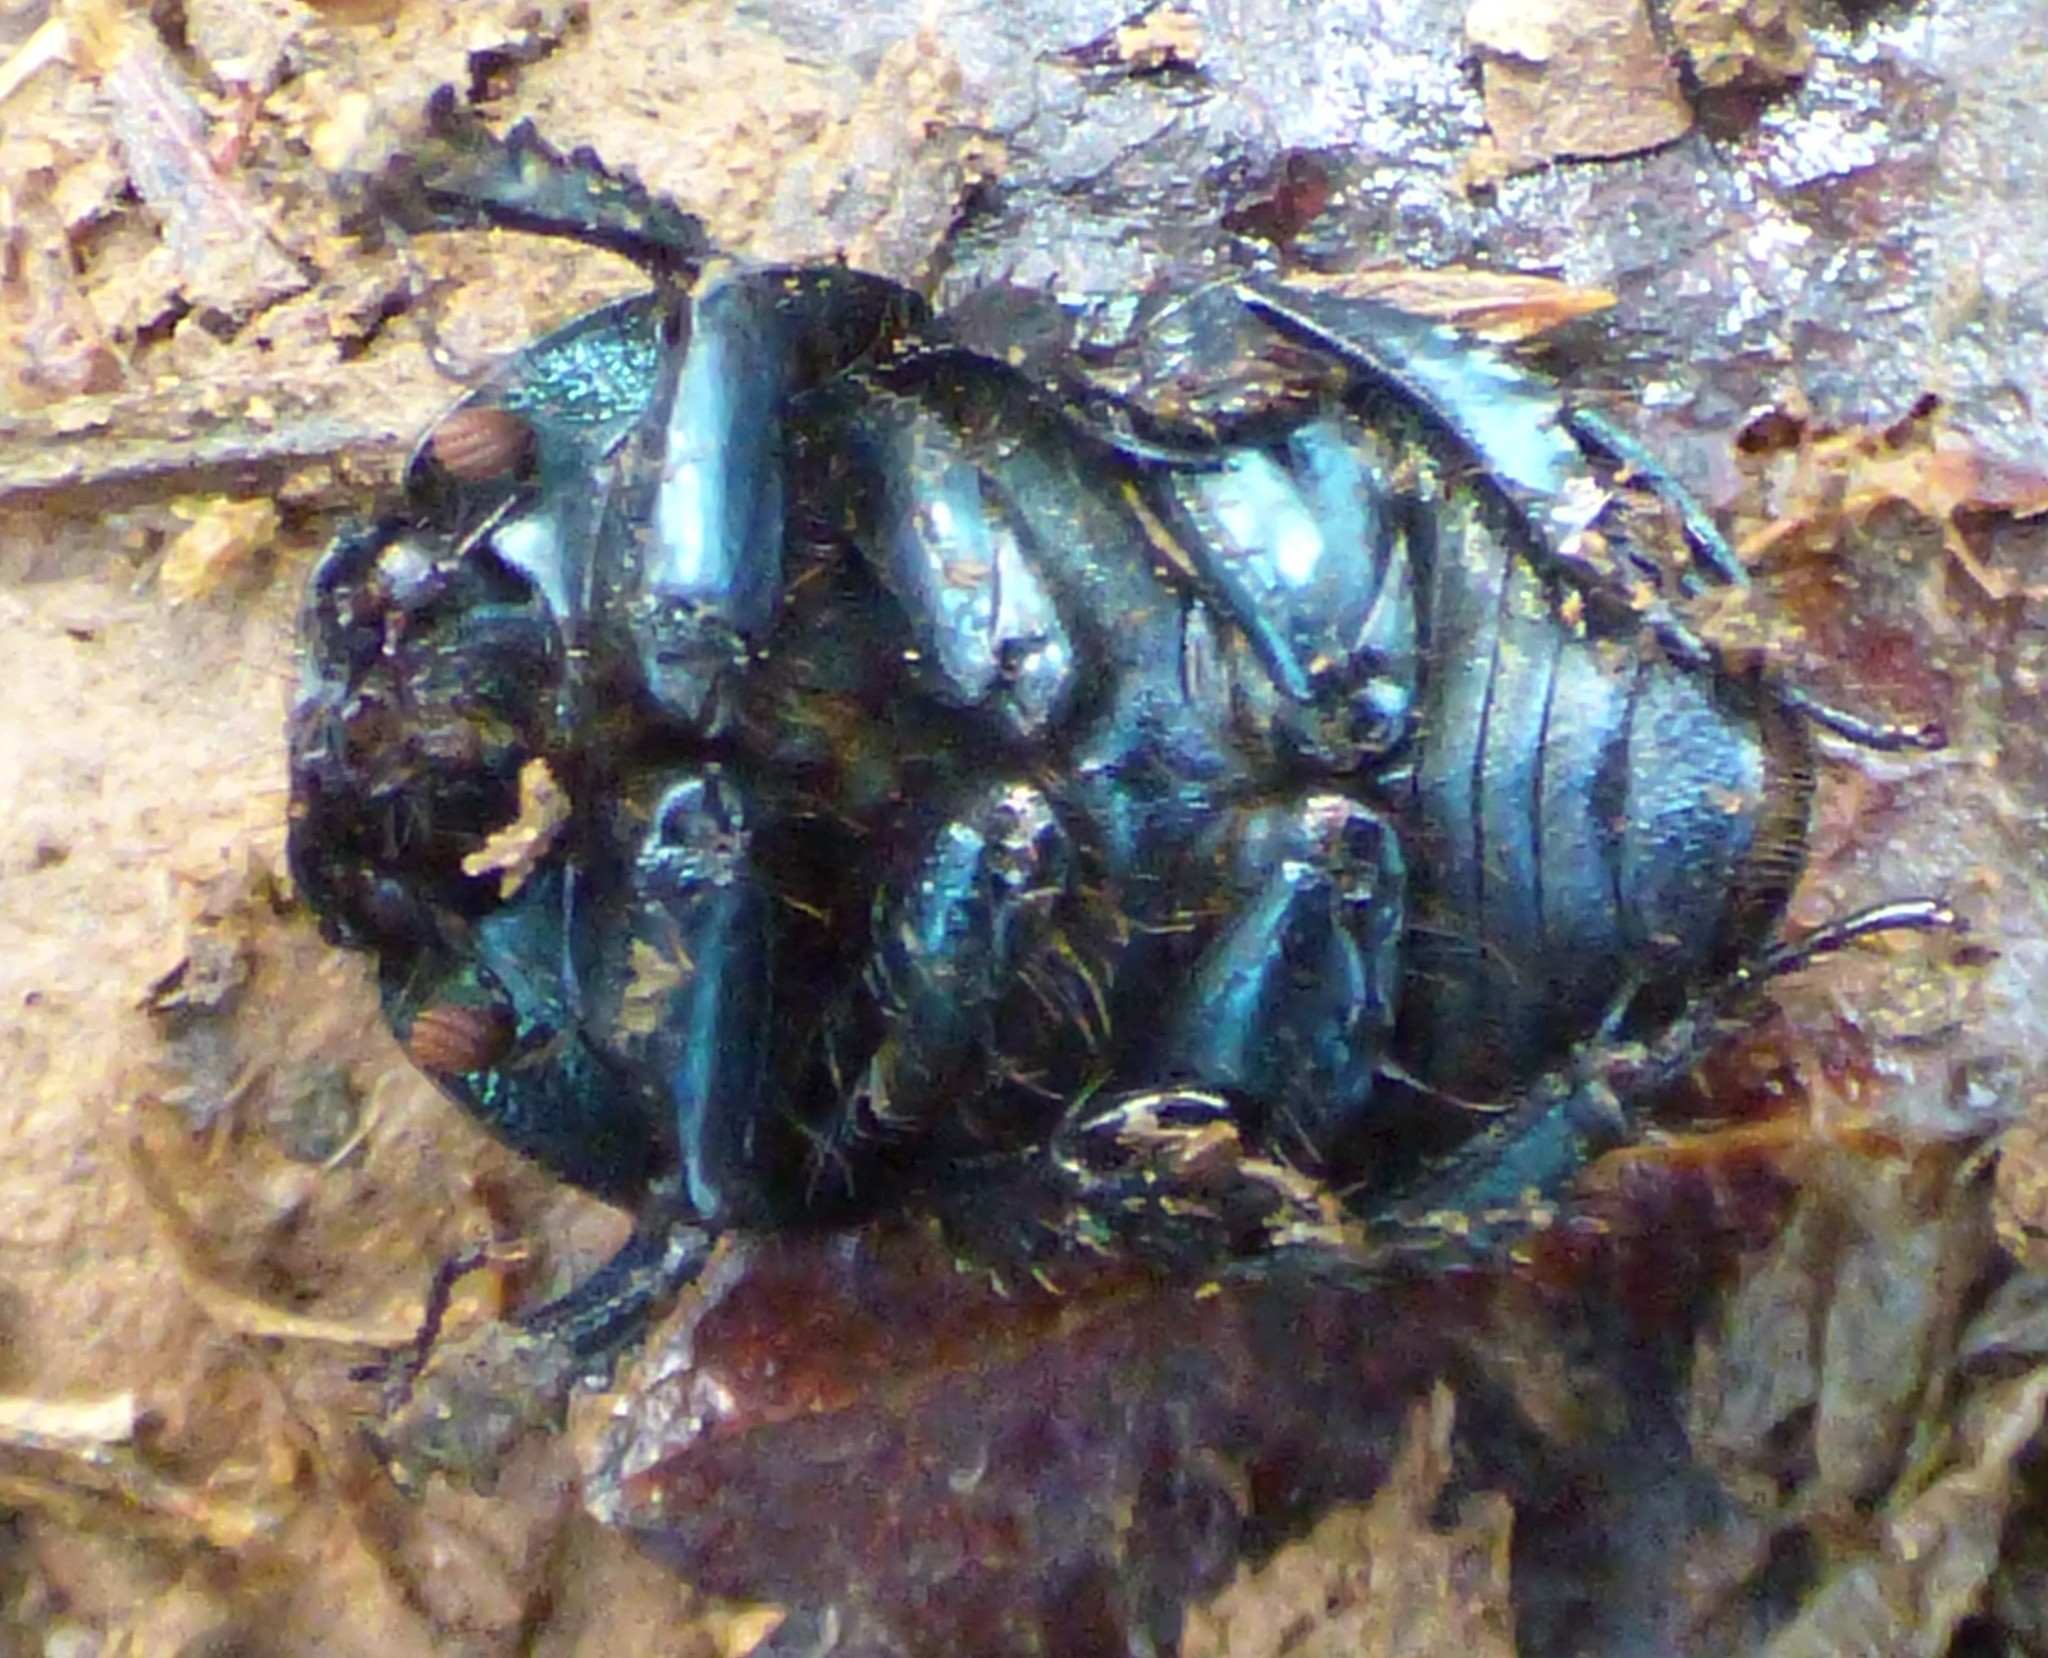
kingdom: Animalia
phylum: Arthropoda
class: Insecta
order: Coleoptera
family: Geotrupidae
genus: Geotrupes
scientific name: Geotrupes splendidus
